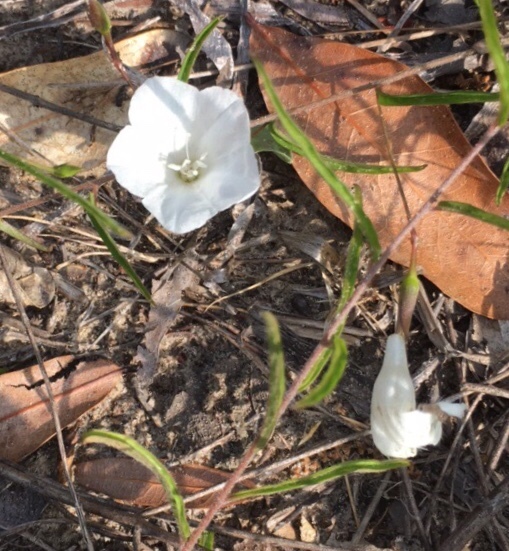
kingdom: Plantae
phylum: Tracheophyta
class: Magnoliopsida
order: Solanales
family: Convolvulaceae
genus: Stylisma
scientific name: Stylisma patens
